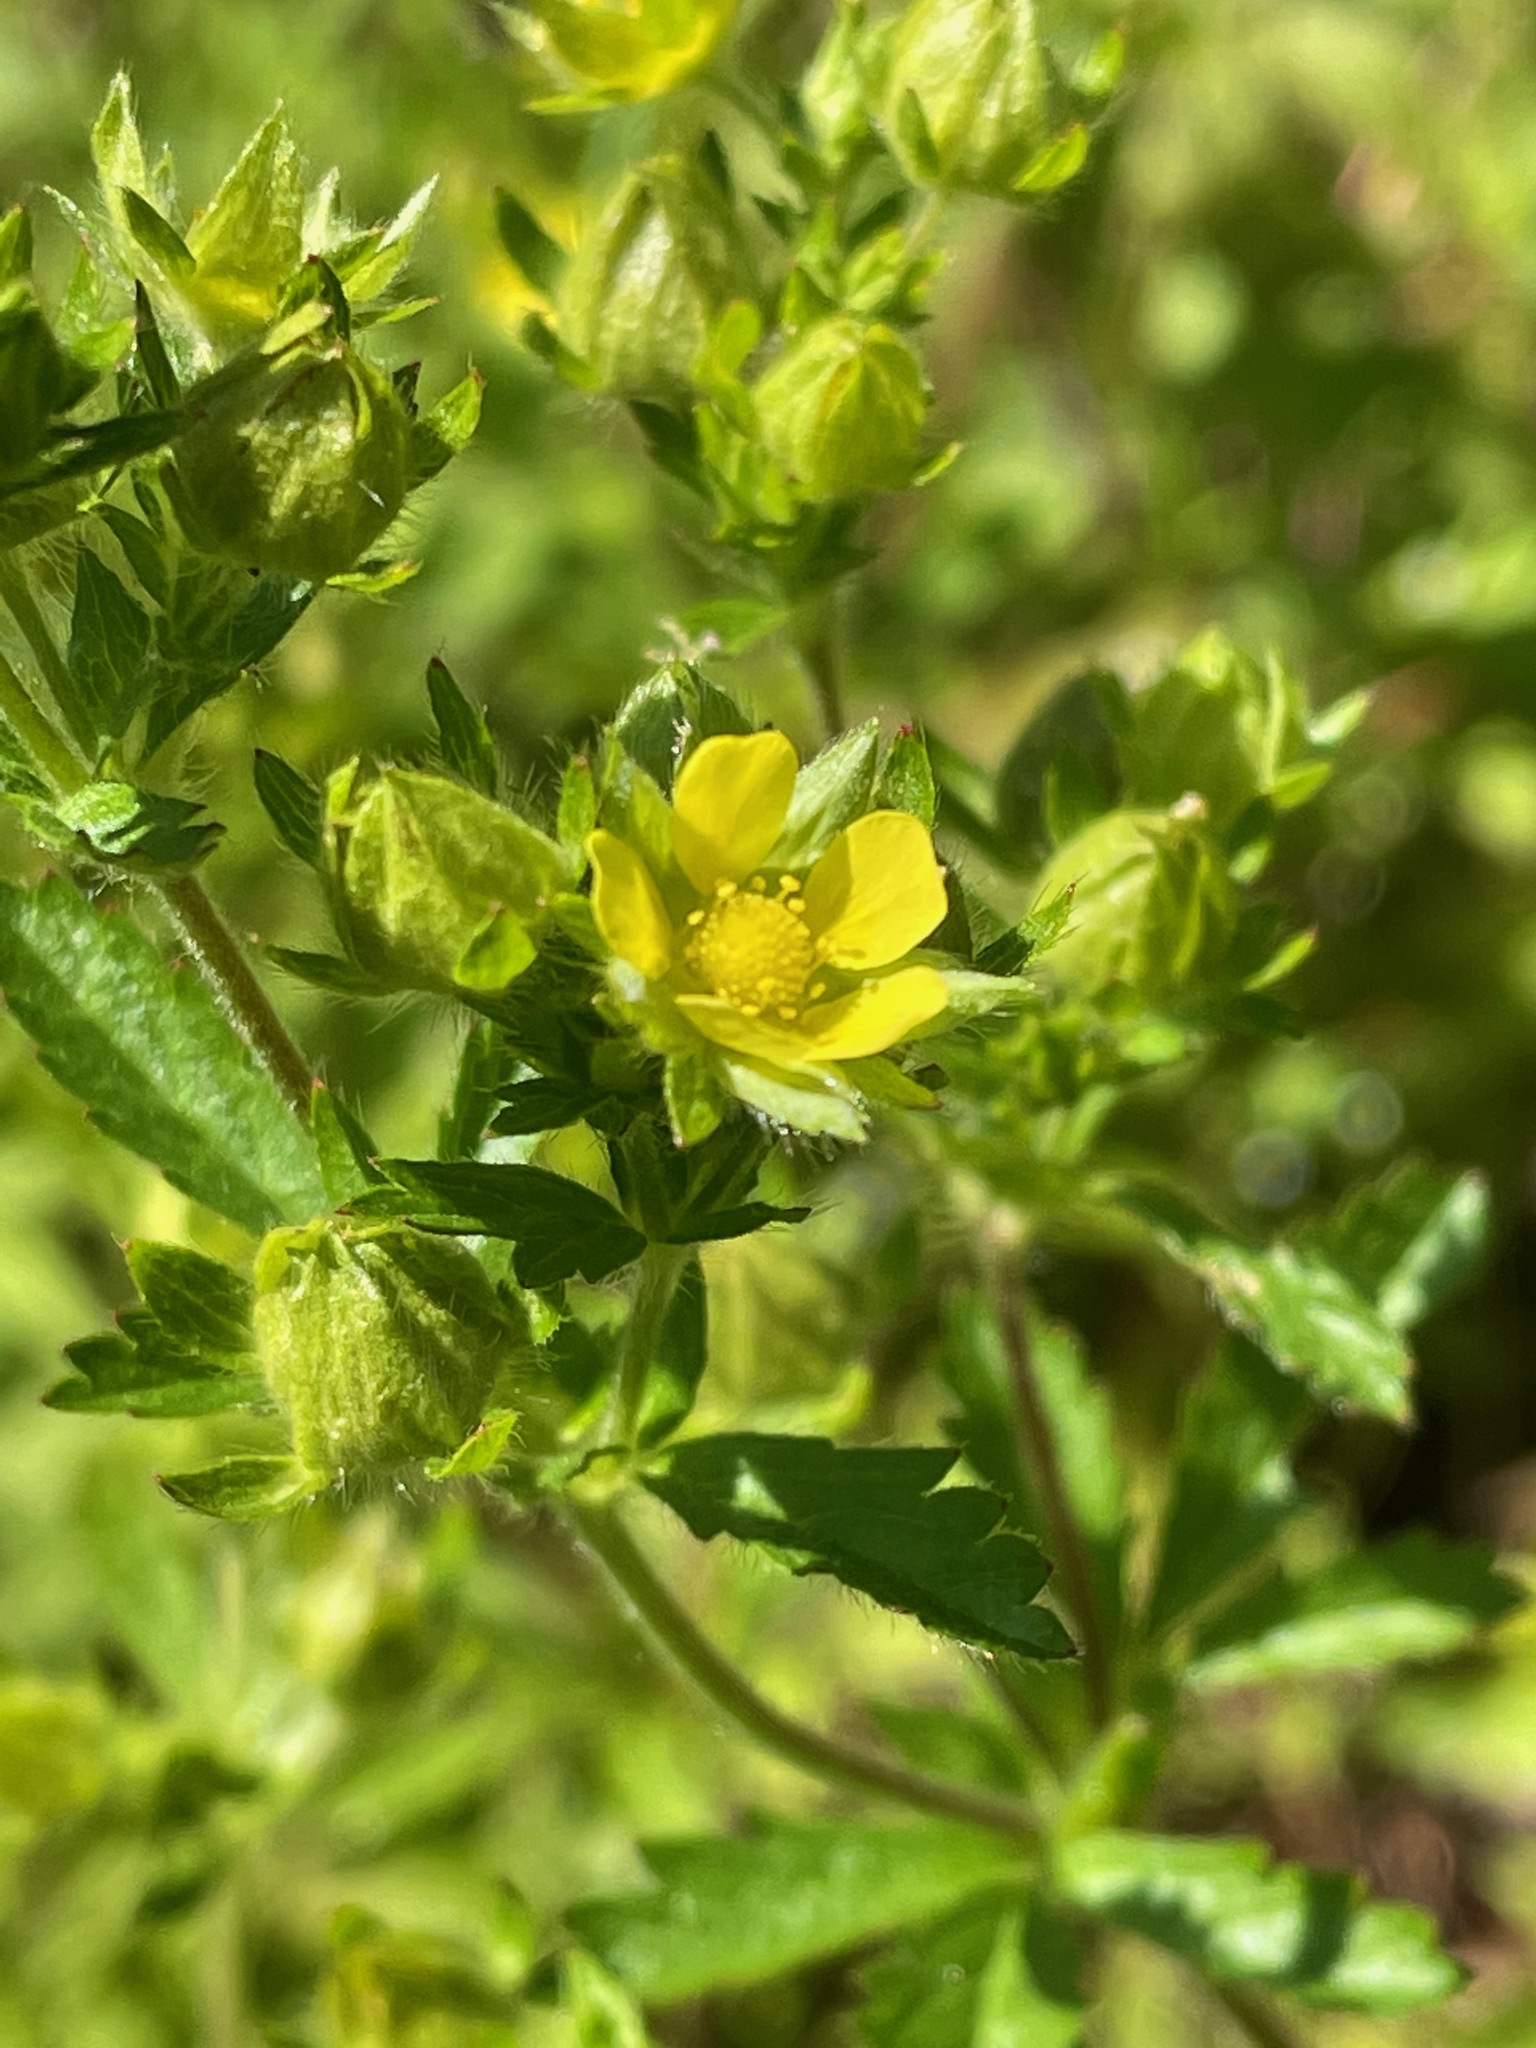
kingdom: Plantae
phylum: Tracheophyta
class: Magnoliopsida
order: Rosales
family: Rosaceae
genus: Potentilla
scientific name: Potentilla norvegica
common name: Ternate-leaved cinquefoil
